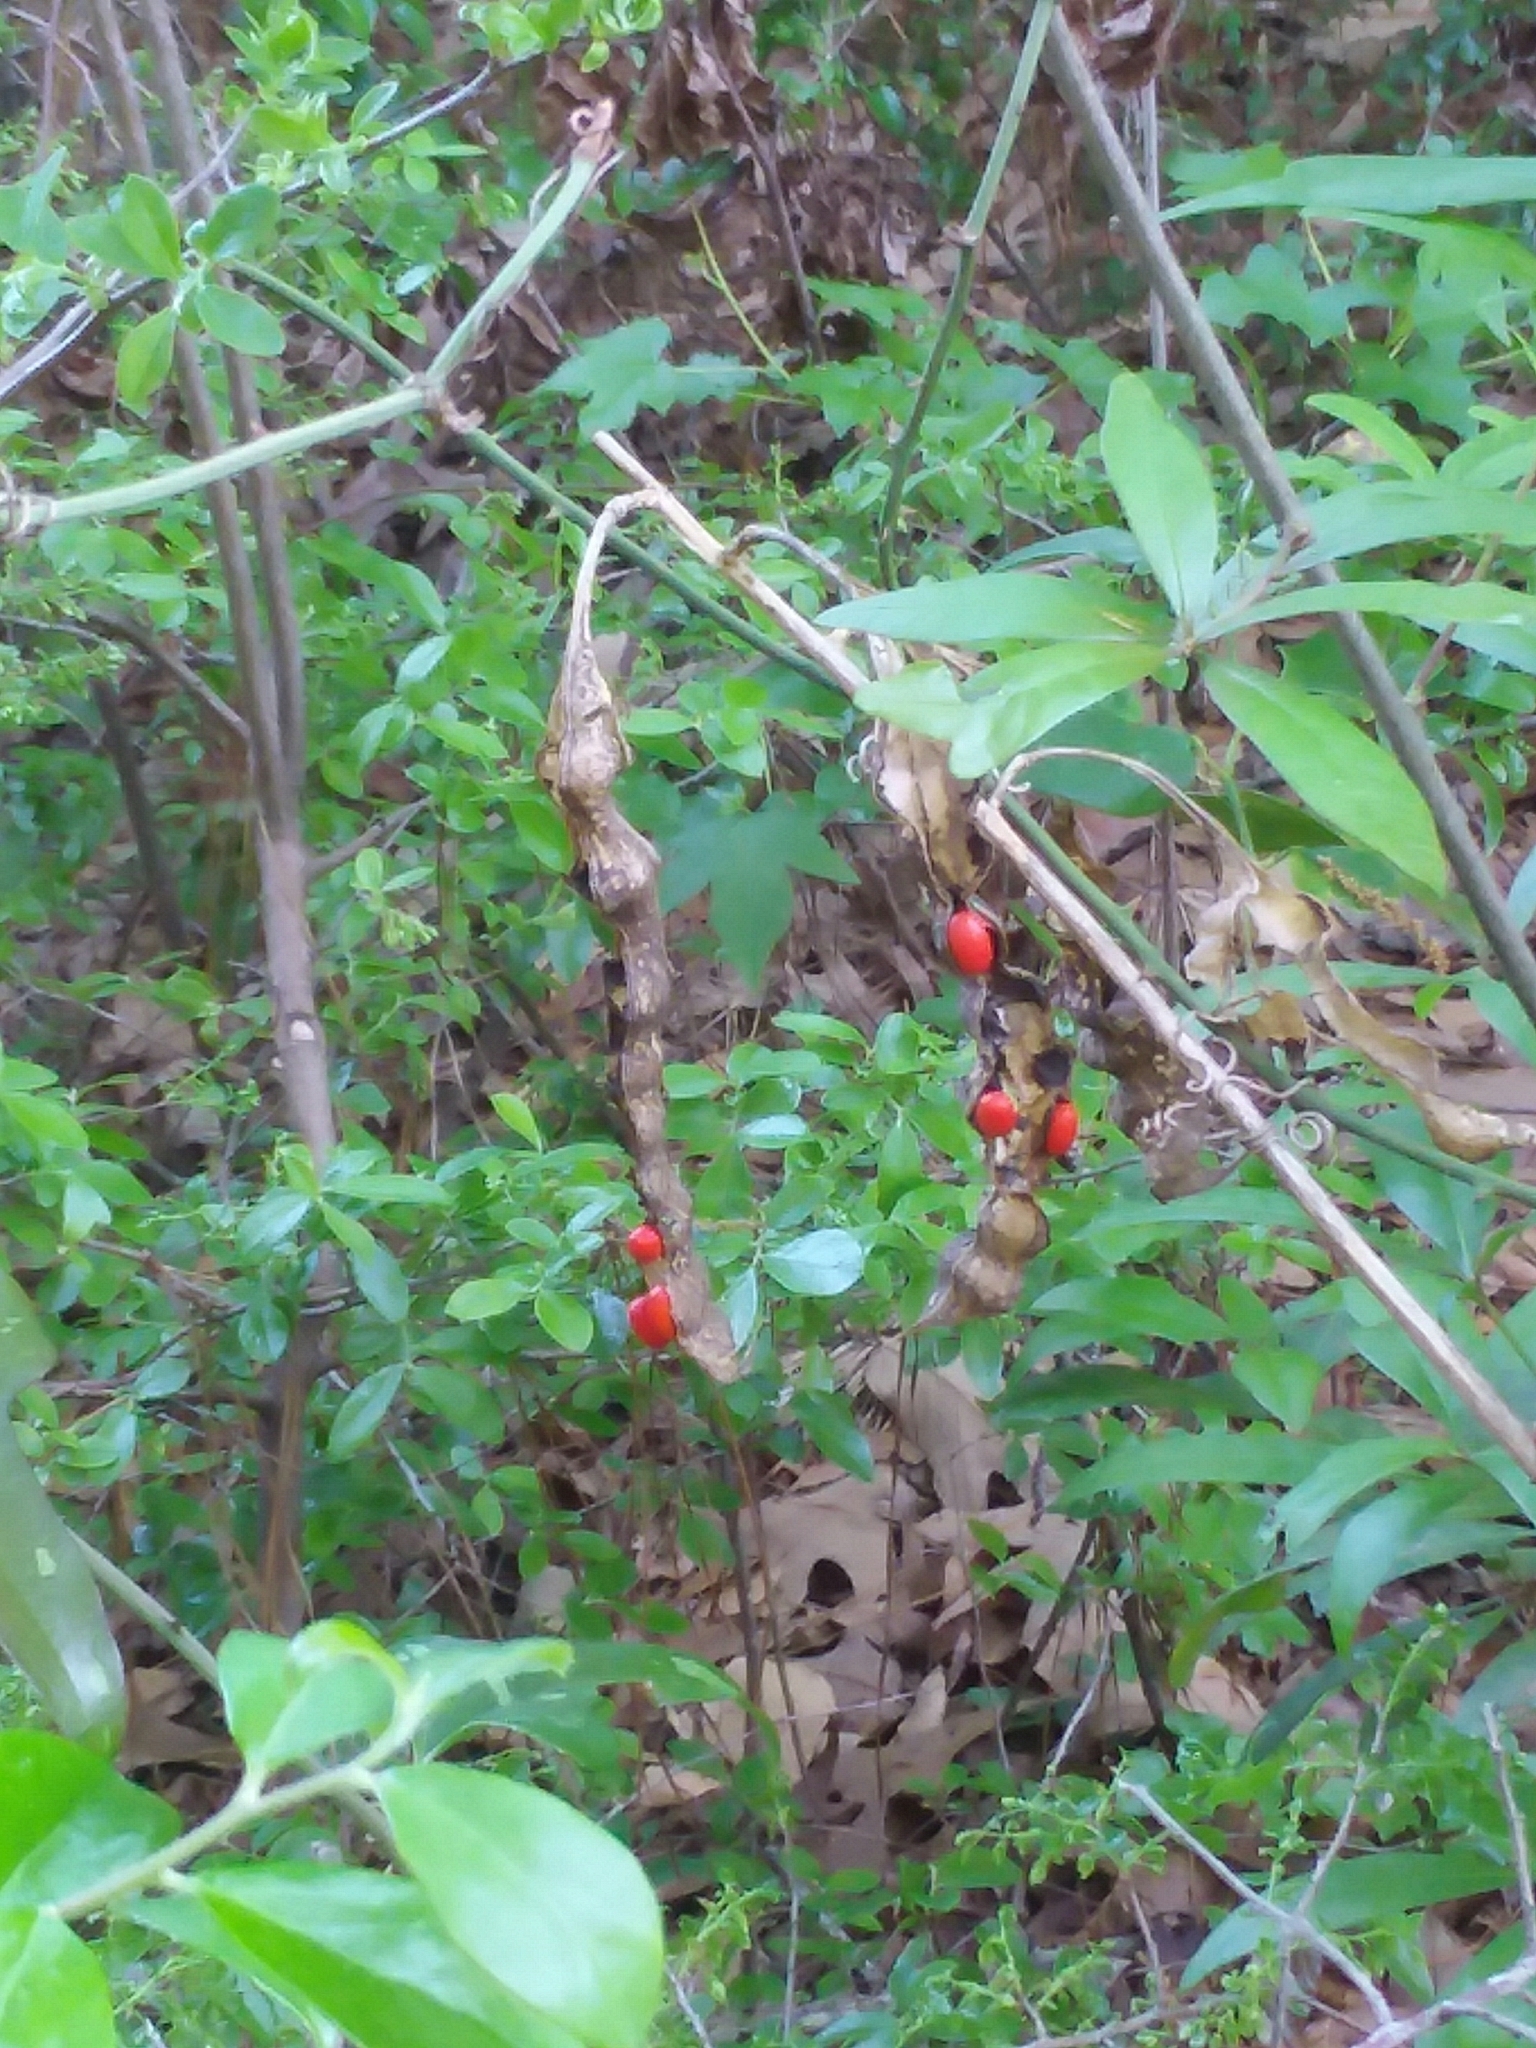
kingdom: Plantae
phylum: Tracheophyta
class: Magnoliopsida
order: Fabales
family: Fabaceae
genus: Erythrina
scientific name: Erythrina herbacea
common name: Coral-bean
